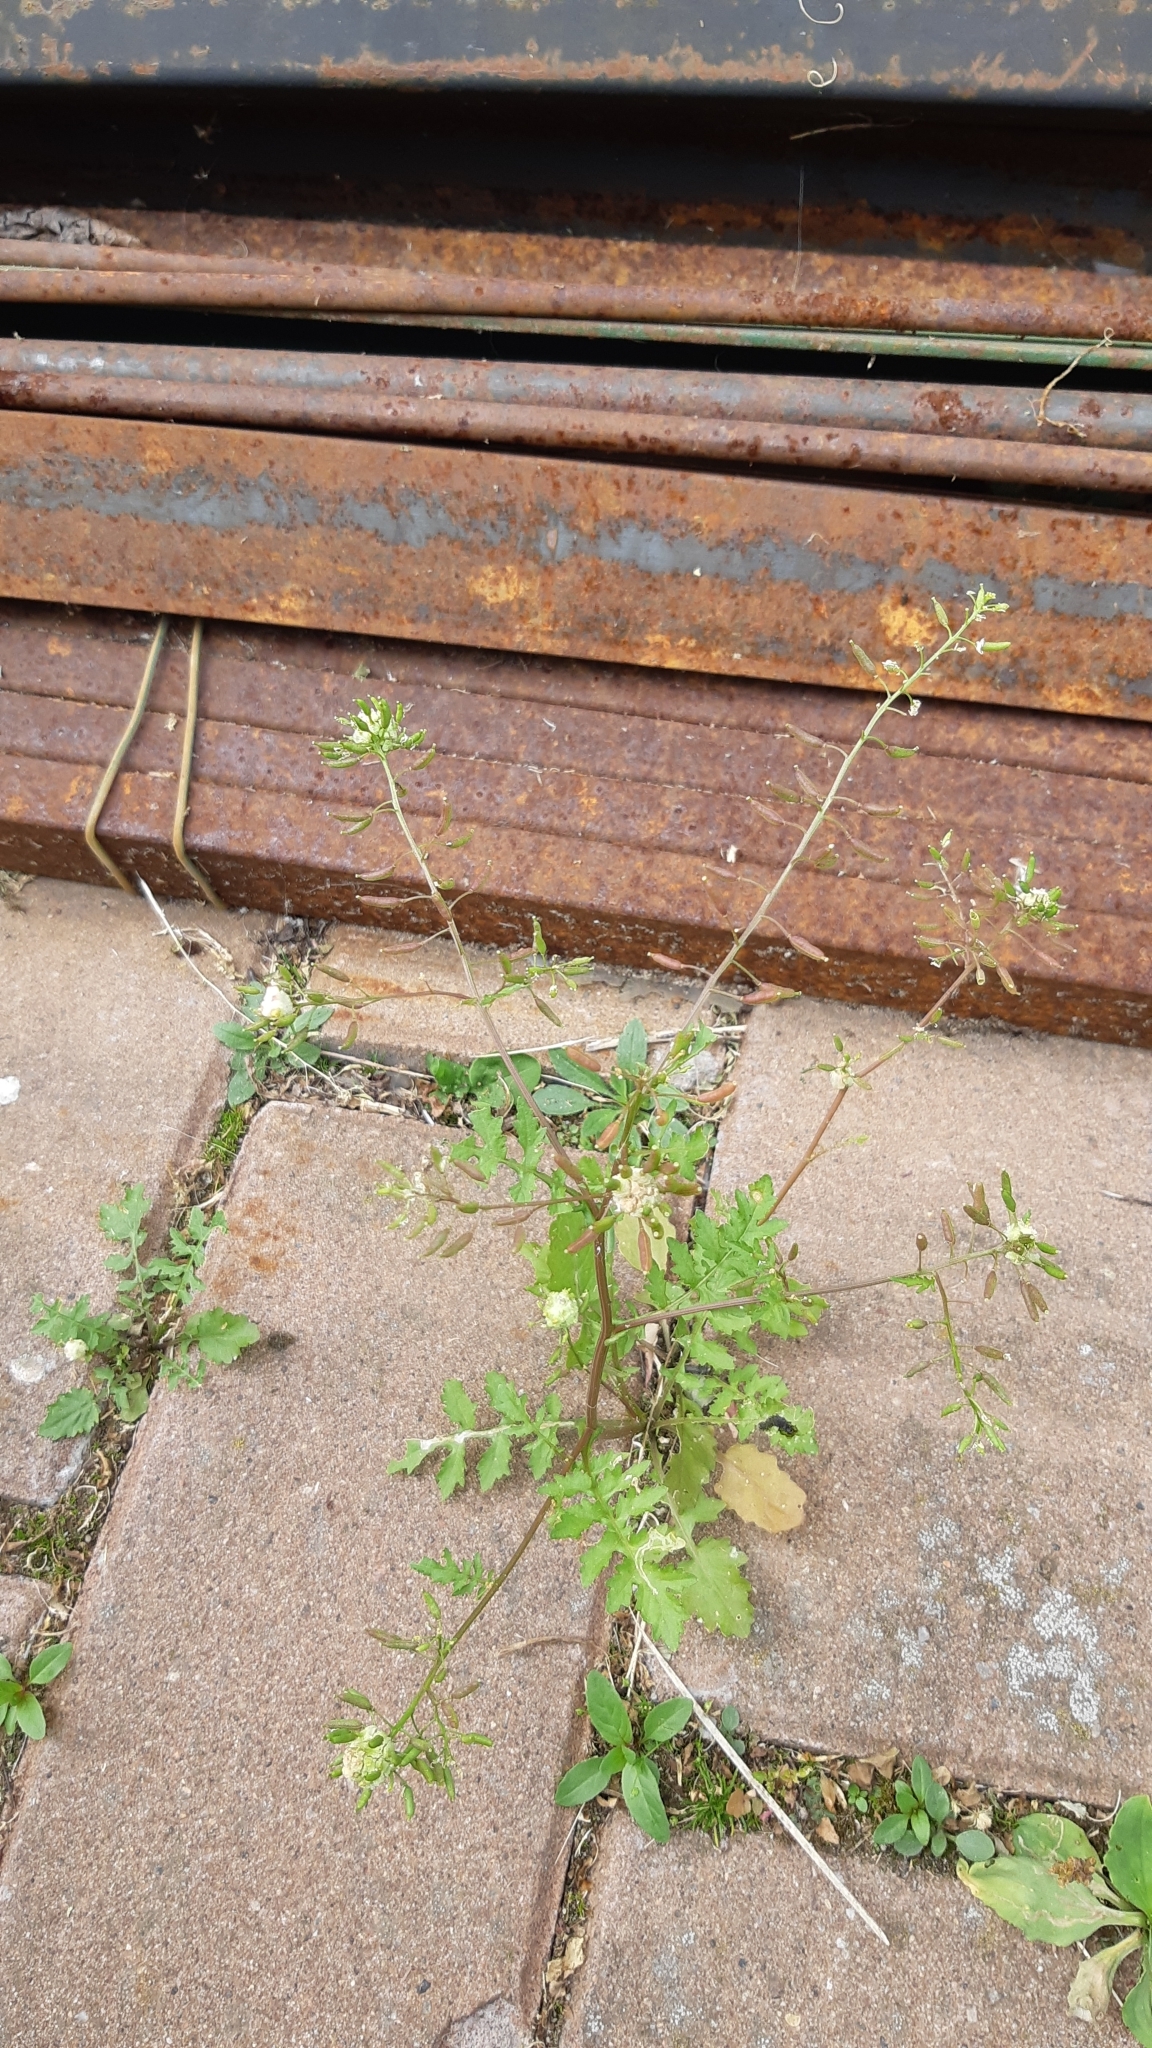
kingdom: Plantae
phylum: Tracheophyta
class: Magnoliopsida
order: Brassicales
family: Brassicaceae
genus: Rorippa
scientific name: Rorippa palustris
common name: Marsh yellow-cress
